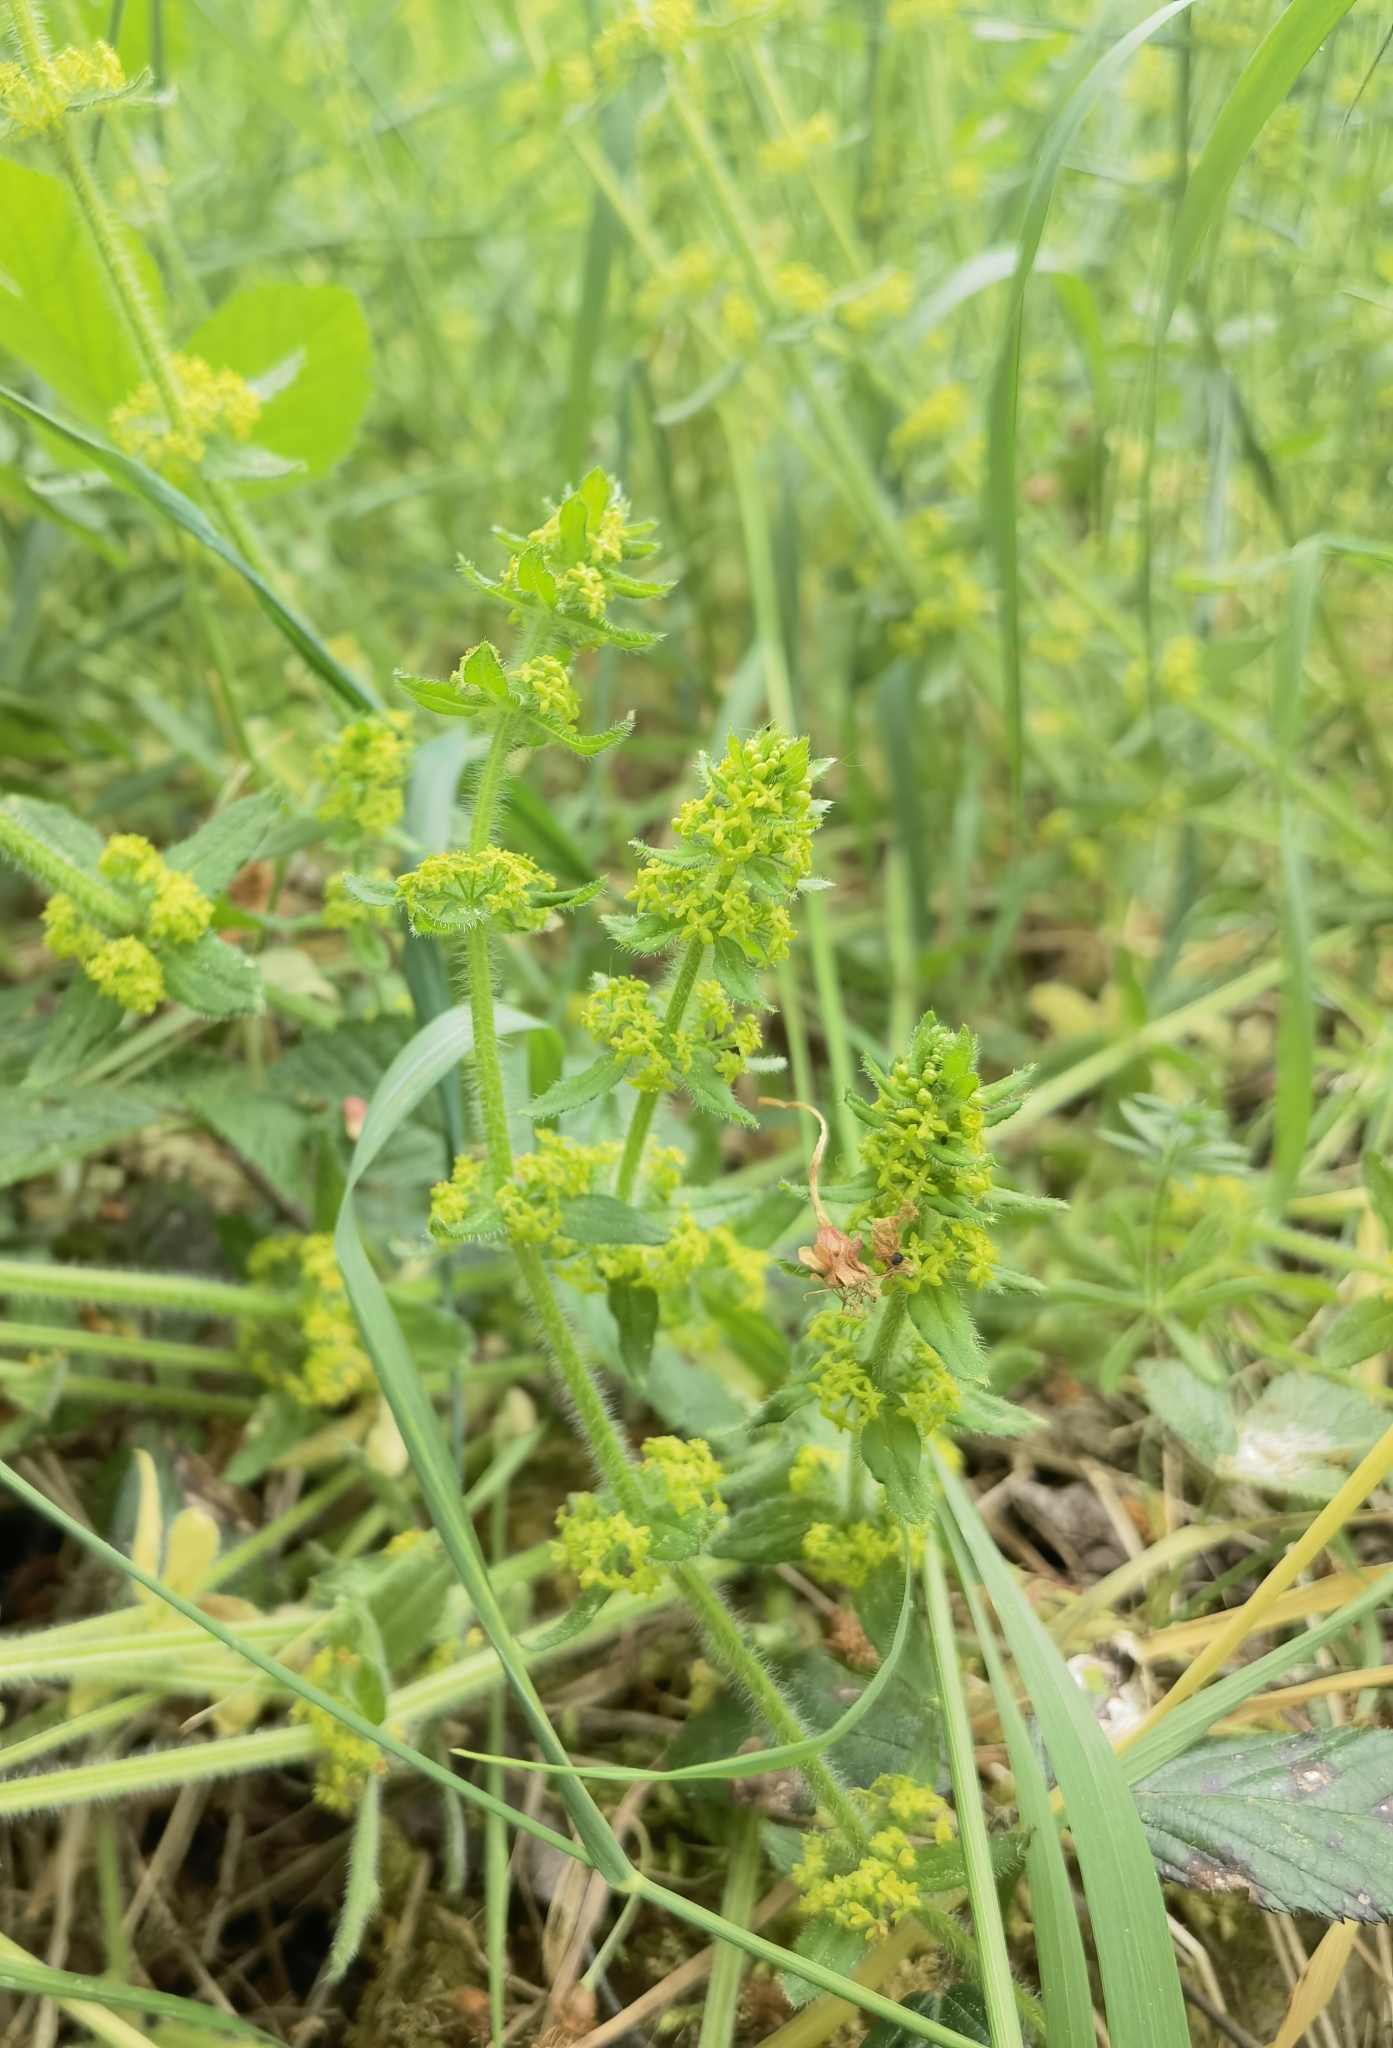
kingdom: Plantae
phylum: Tracheophyta
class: Magnoliopsida
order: Gentianales
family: Rubiaceae
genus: Cruciata
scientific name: Cruciata laevipes
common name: Crosswort
